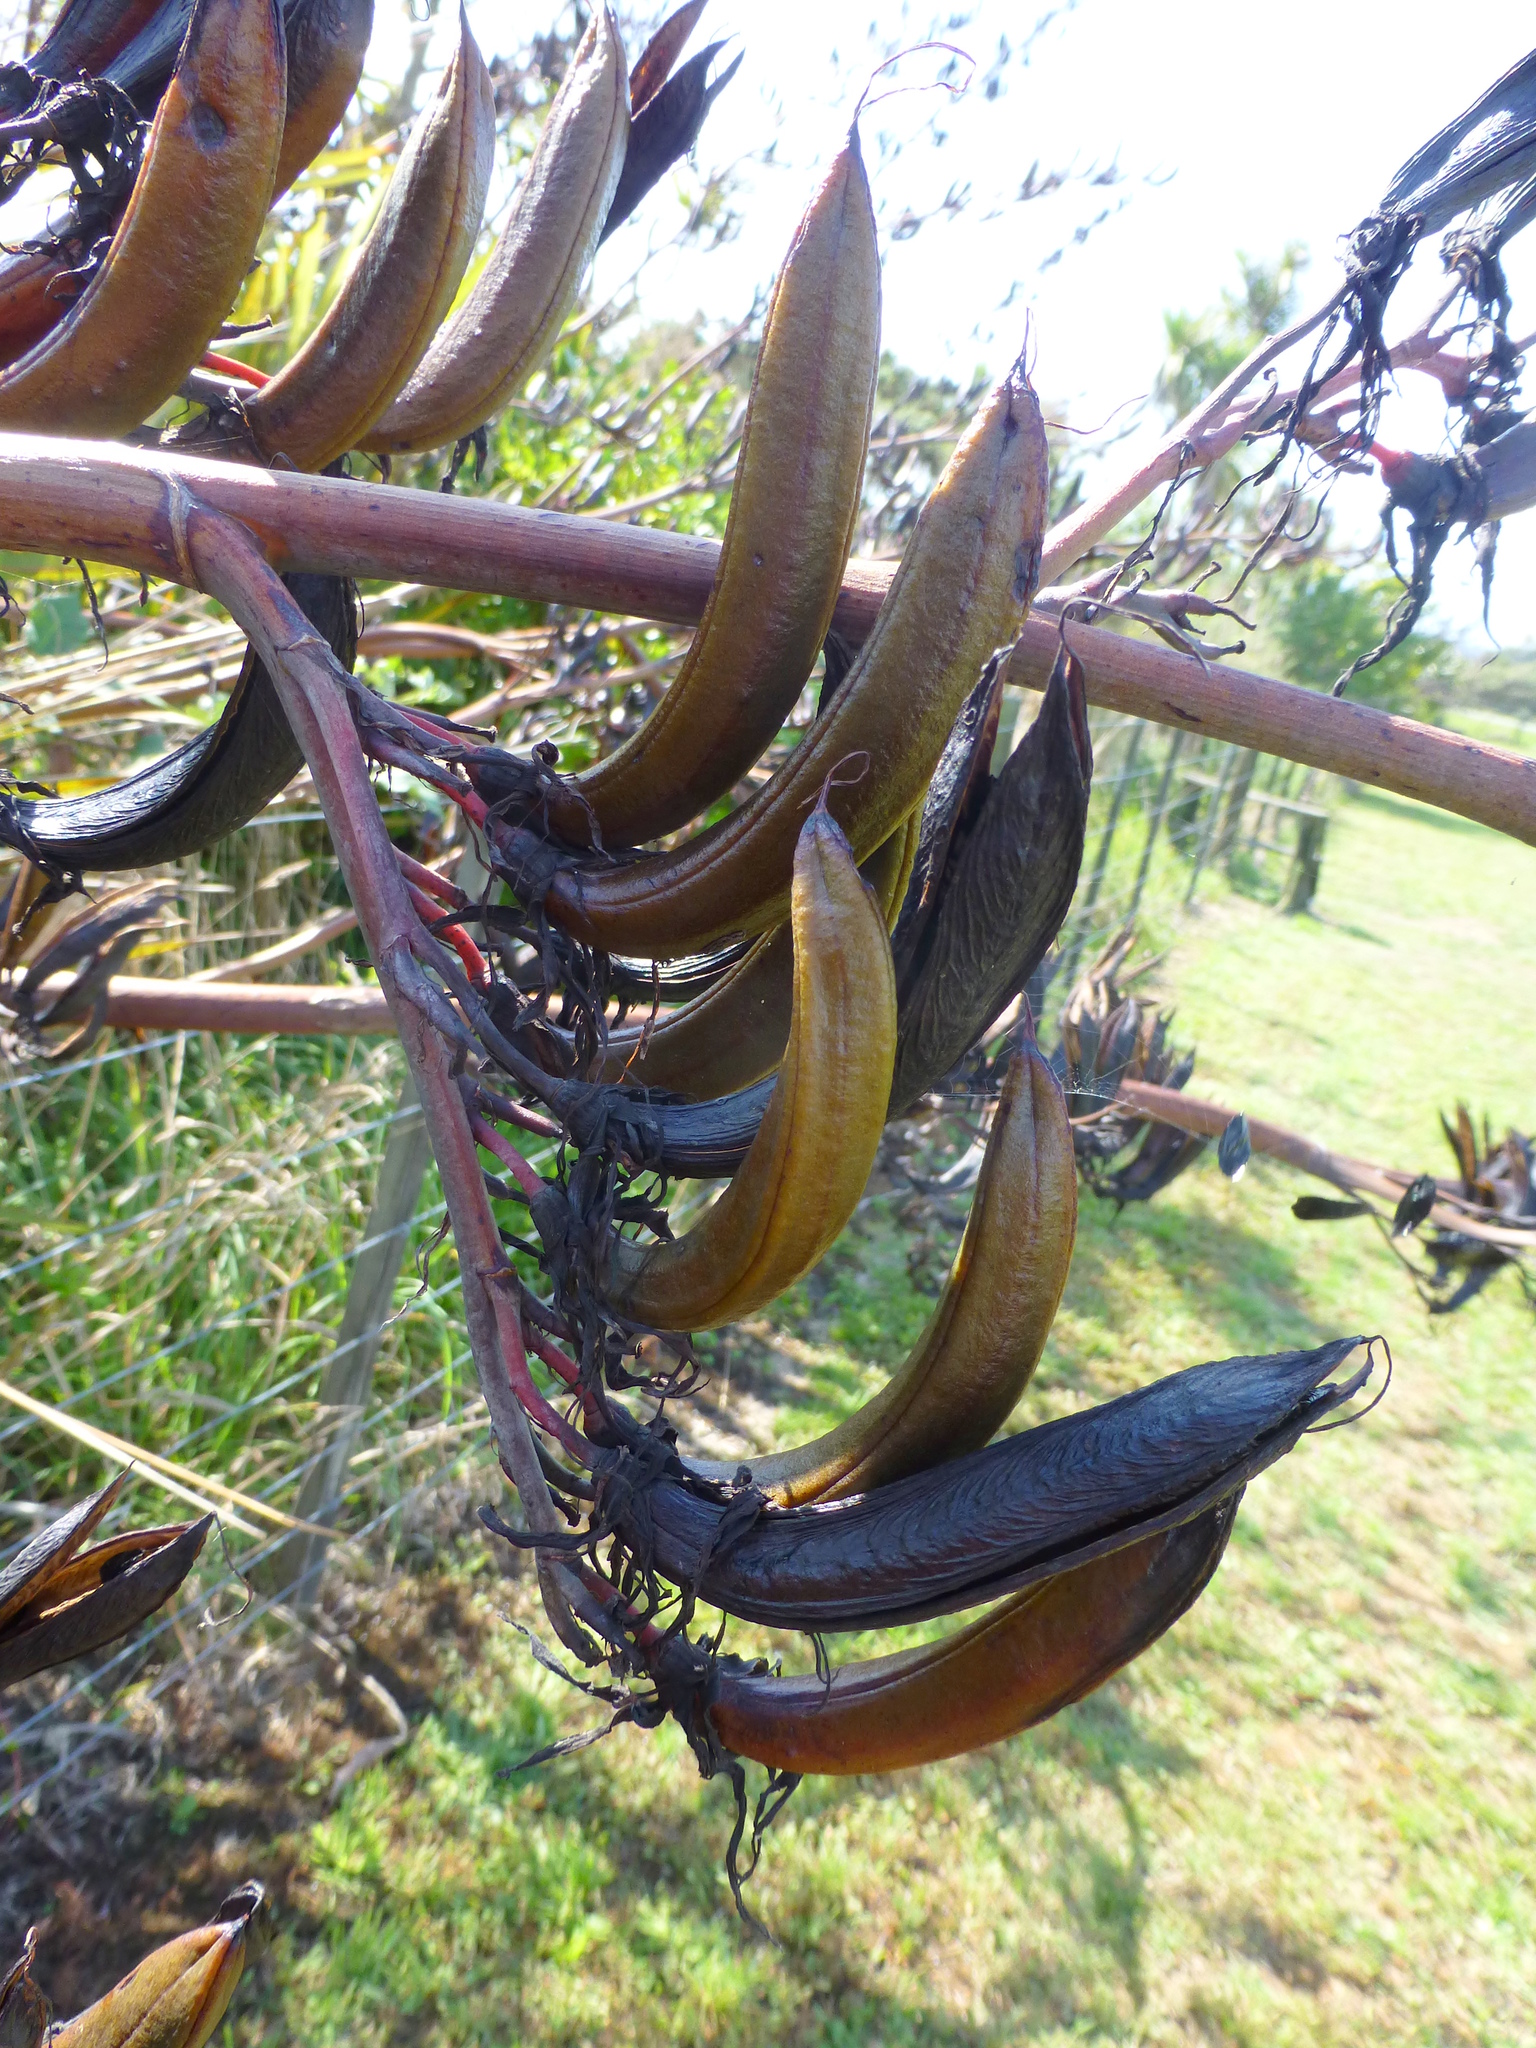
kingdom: Plantae
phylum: Tracheophyta
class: Liliopsida
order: Asparagales
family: Asphodelaceae
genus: Phormium
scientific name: Phormium tenax
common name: New zealand flax
